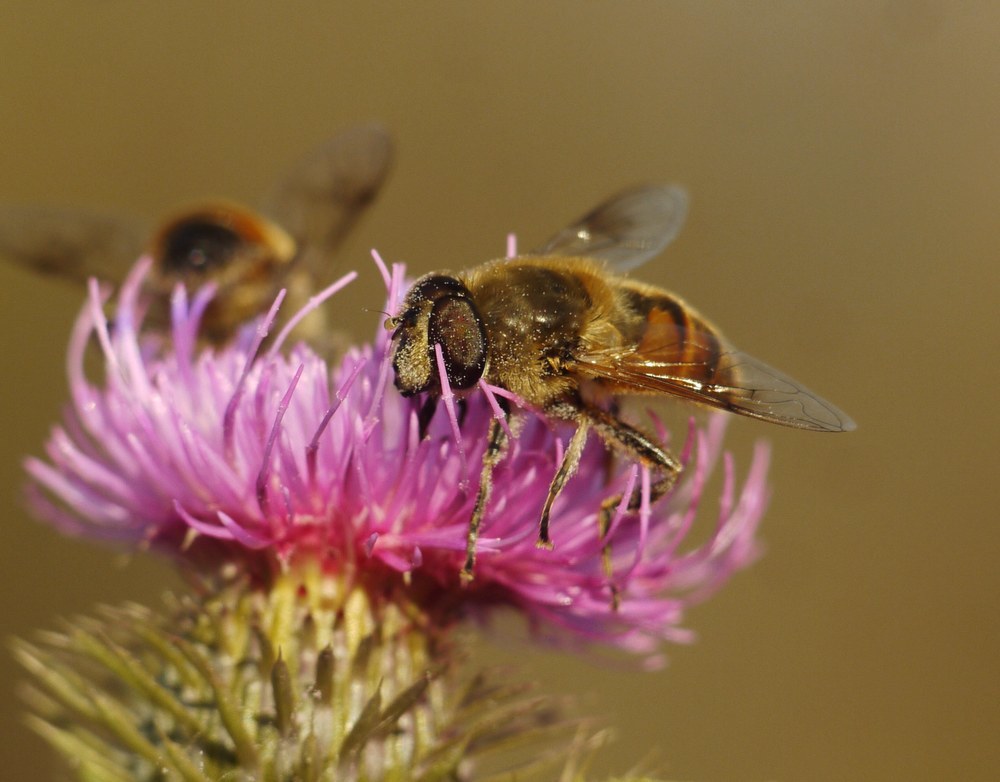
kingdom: Animalia
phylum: Arthropoda
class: Insecta
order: Diptera
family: Syrphidae
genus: Eristalis
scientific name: Eristalis tenax
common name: Drone fly
